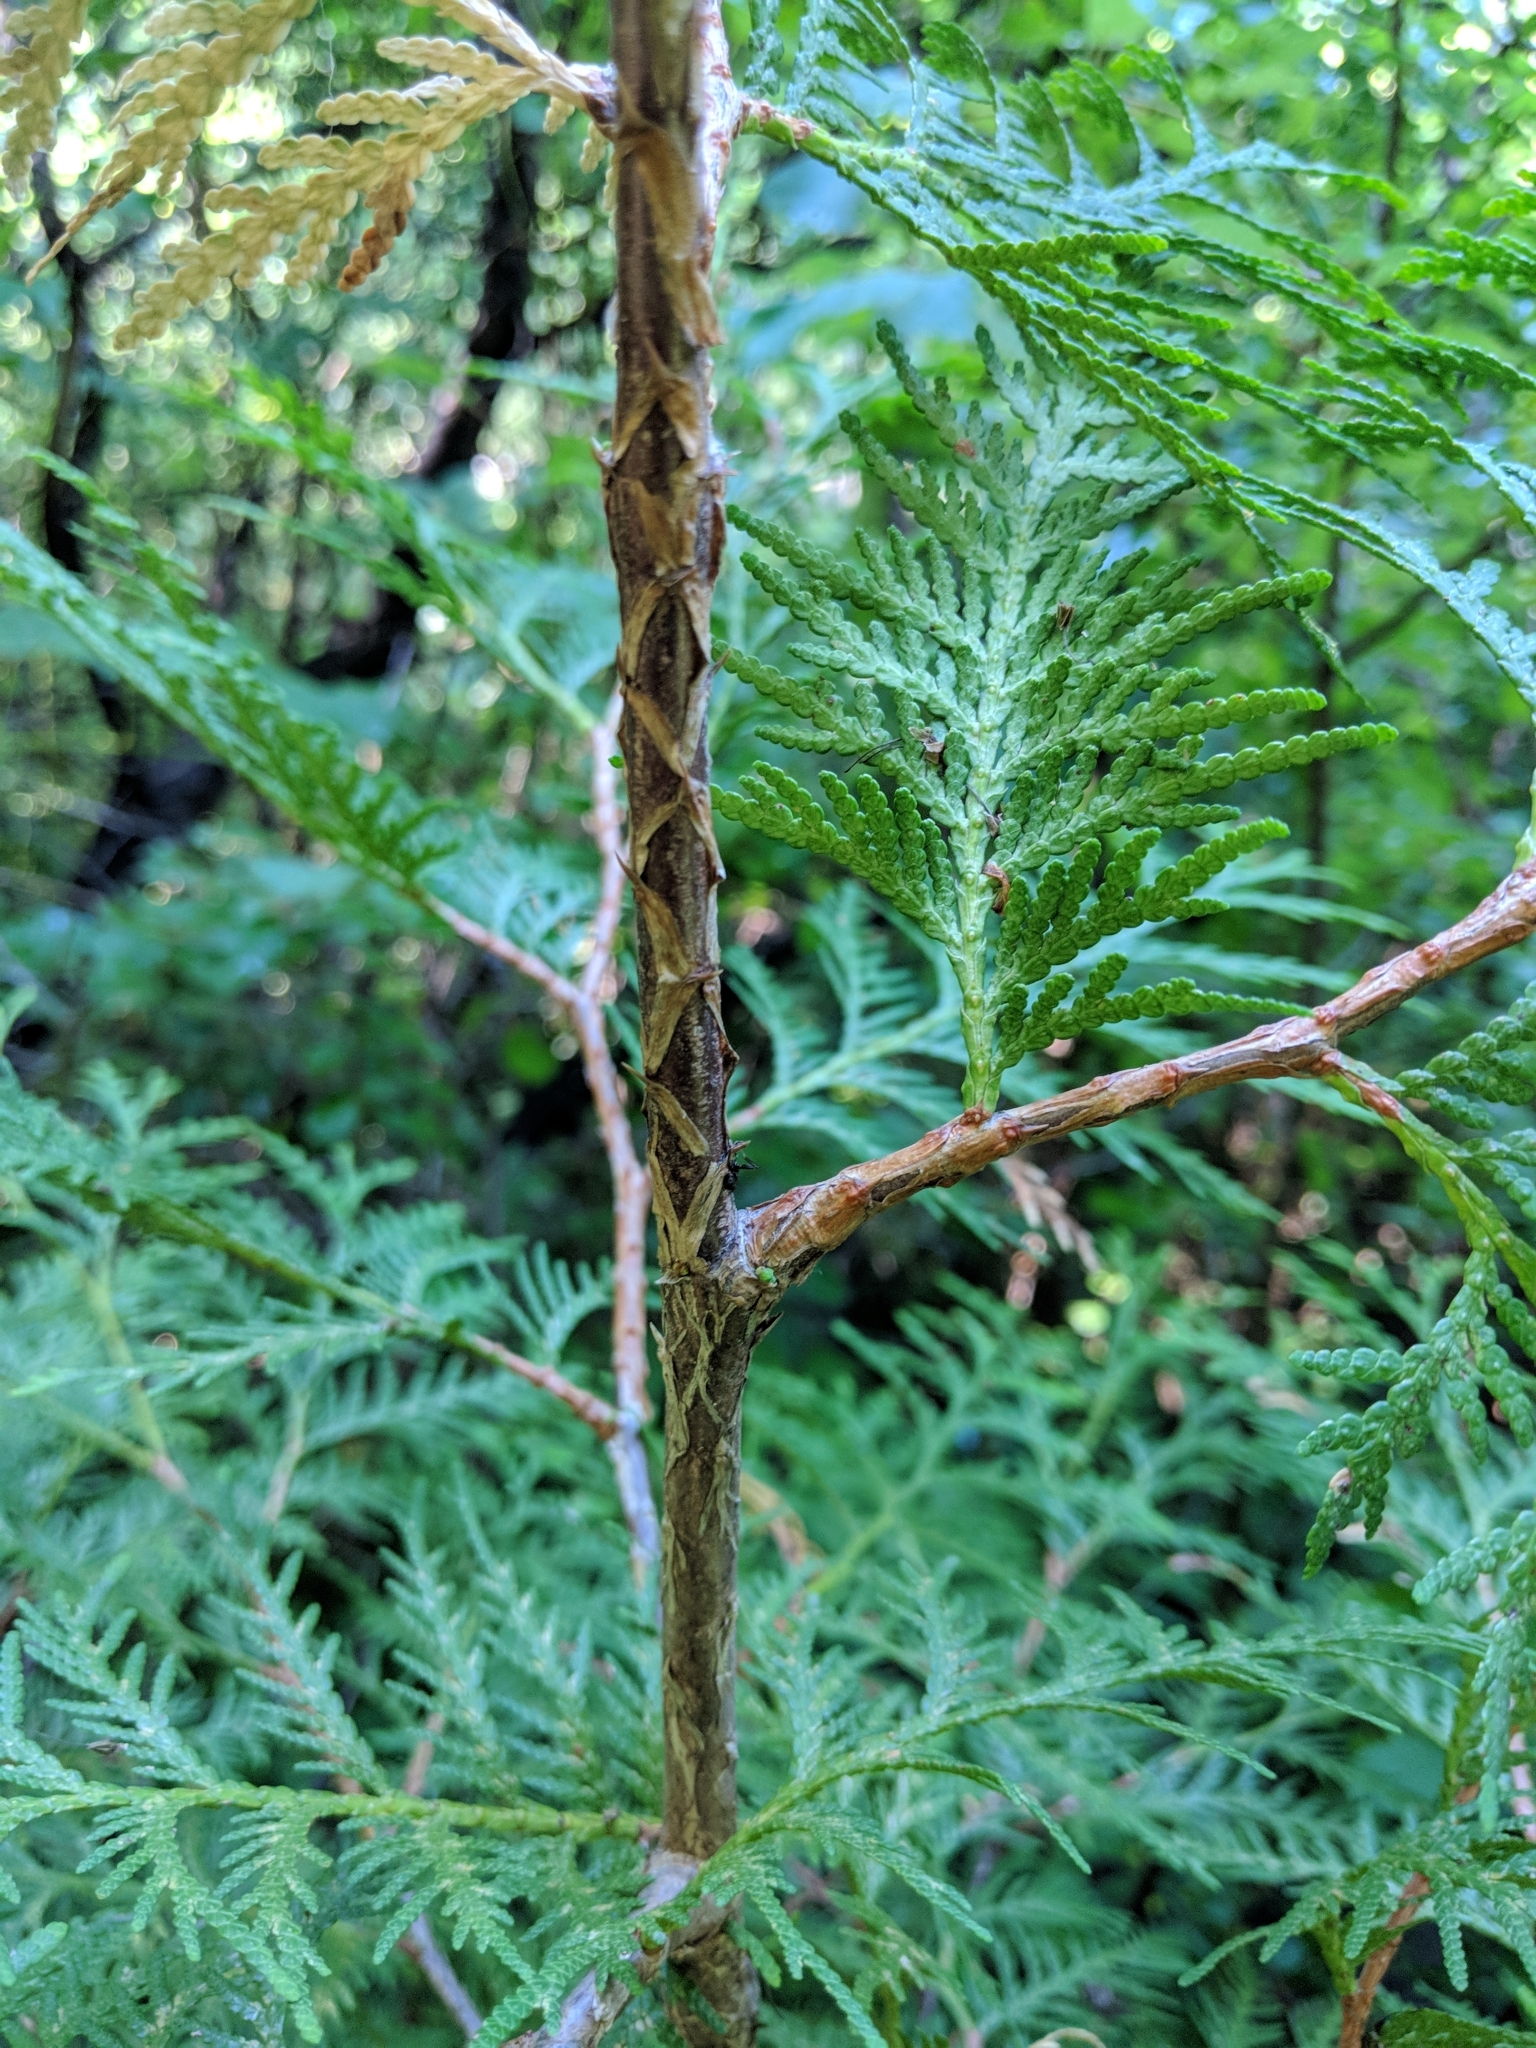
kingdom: Plantae
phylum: Tracheophyta
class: Pinopsida
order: Pinales
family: Cupressaceae
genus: Thuja
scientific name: Thuja occidentalis
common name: Northern white-cedar
